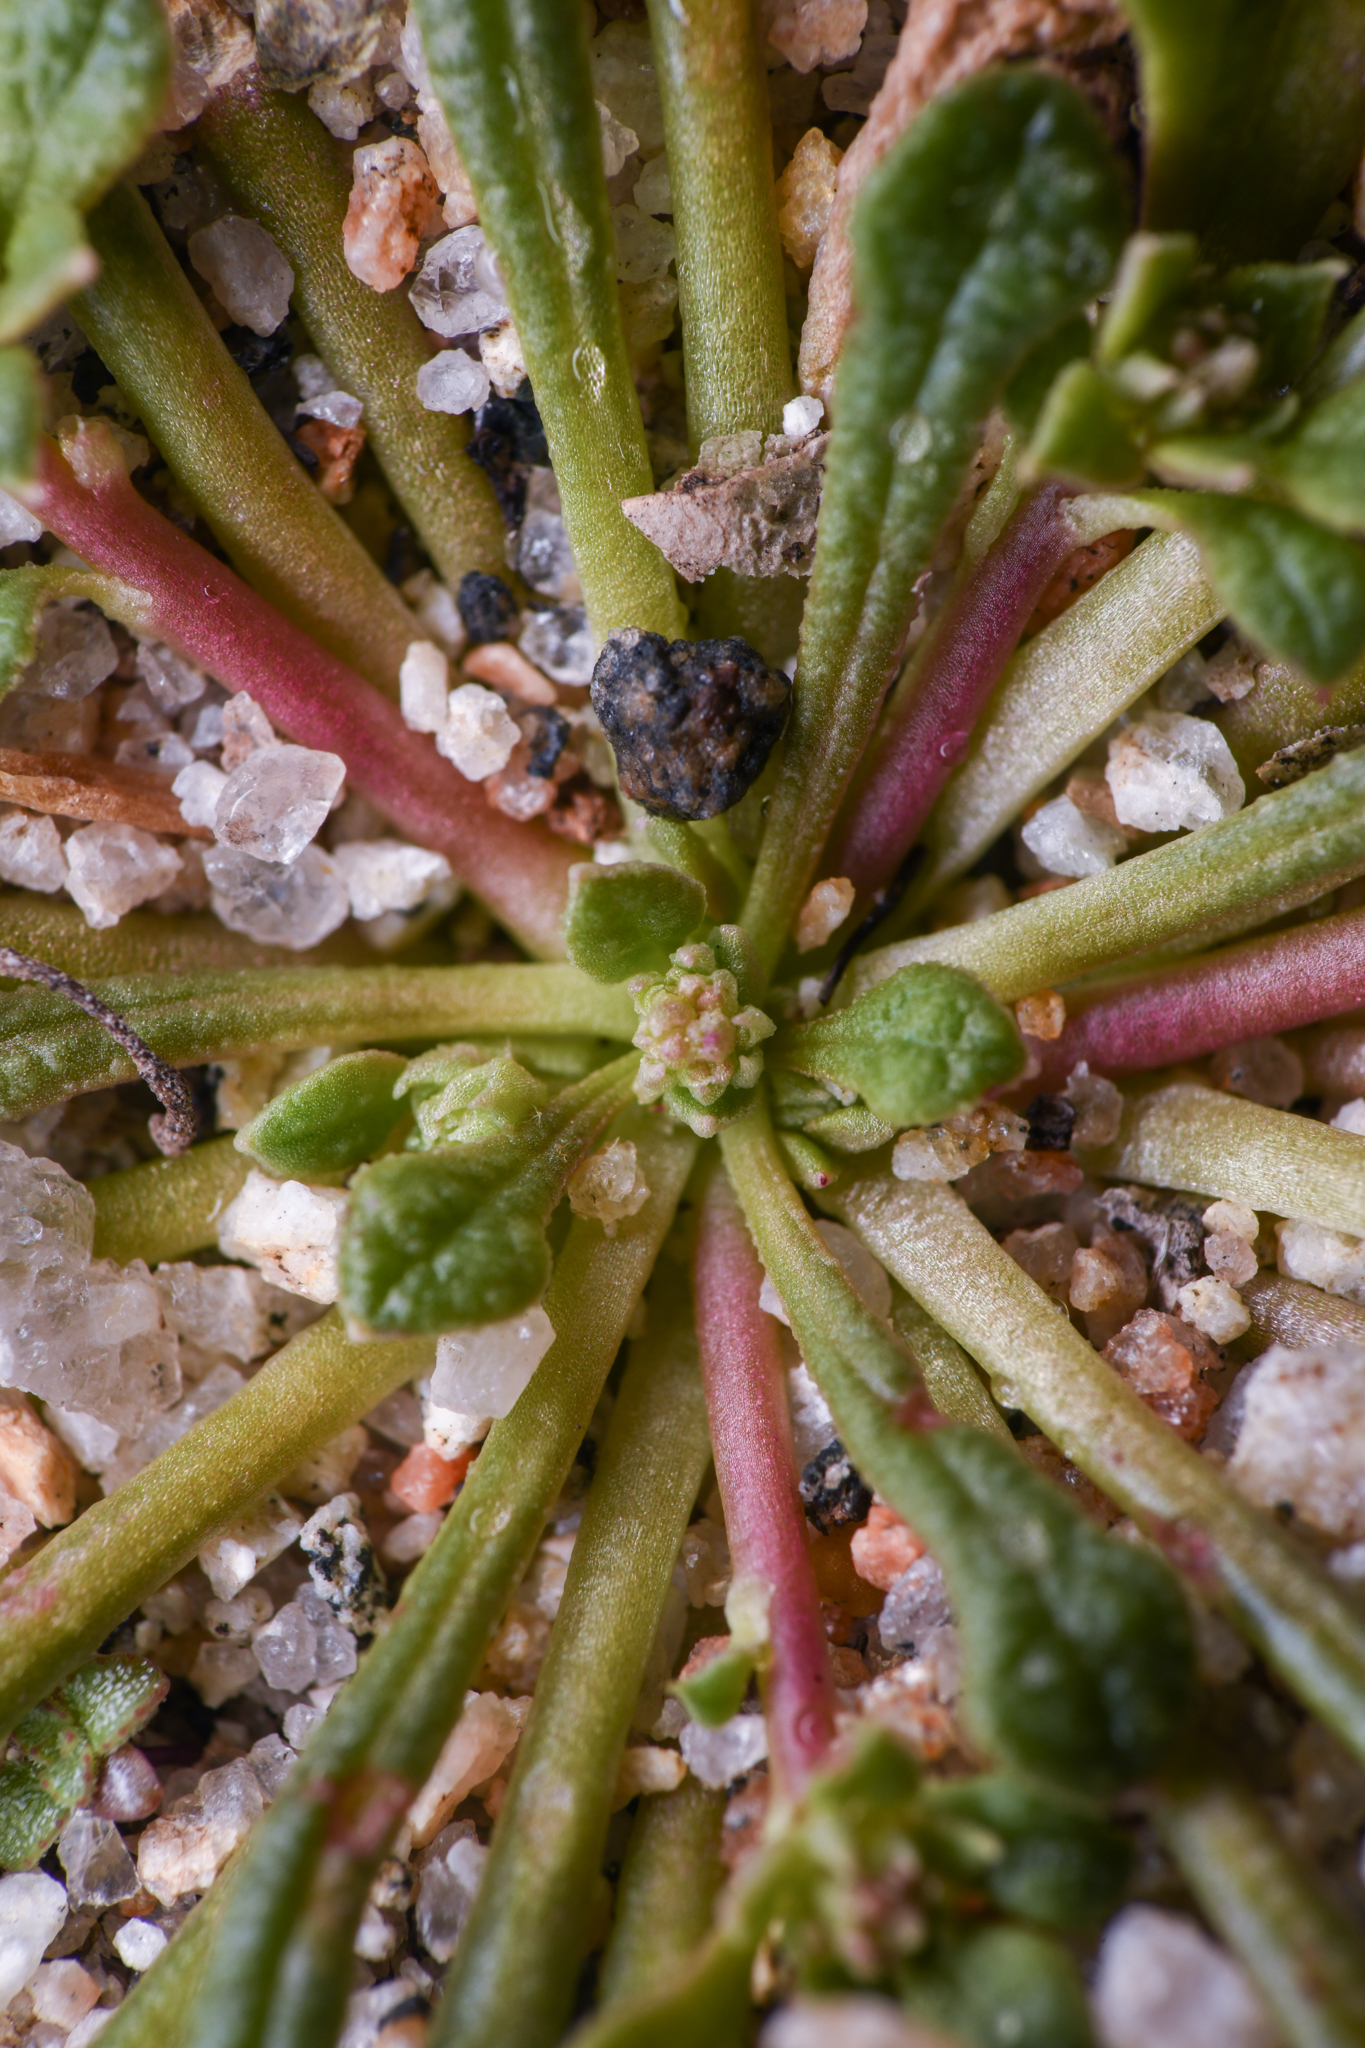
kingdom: Plantae
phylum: Tracheophyta
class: Magnoliopsida
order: Caryophyllales
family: Montiaceae
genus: Calyptridium
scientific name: Calyptridium monandrum
